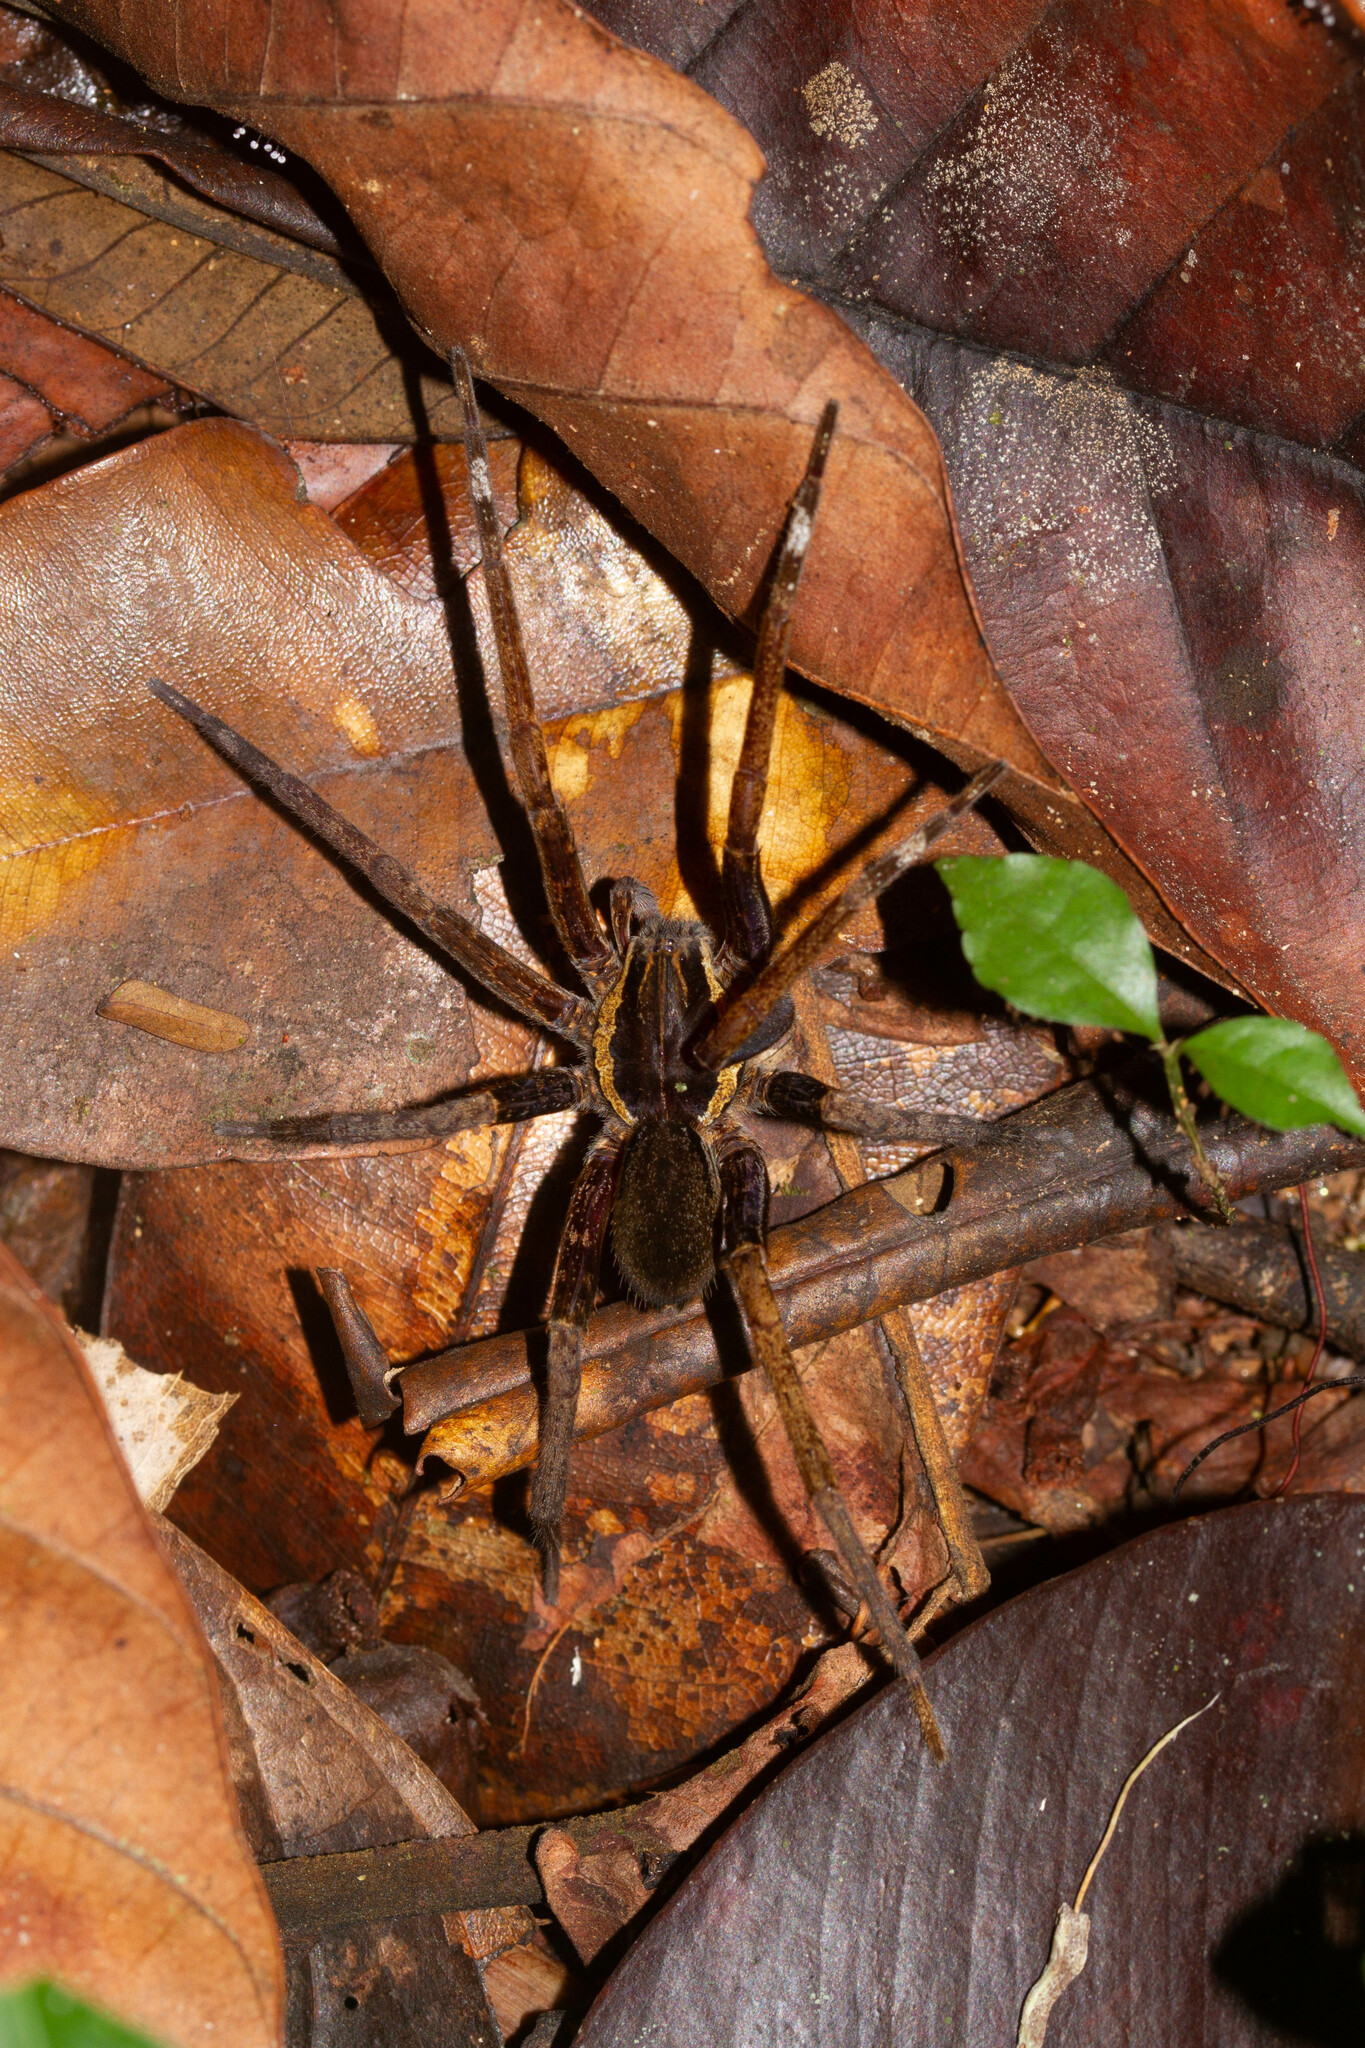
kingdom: Animalia
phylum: Arthropoda
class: Arachnida
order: Araneae
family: Ctenidae
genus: Ancylometes
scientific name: Ancylometes
